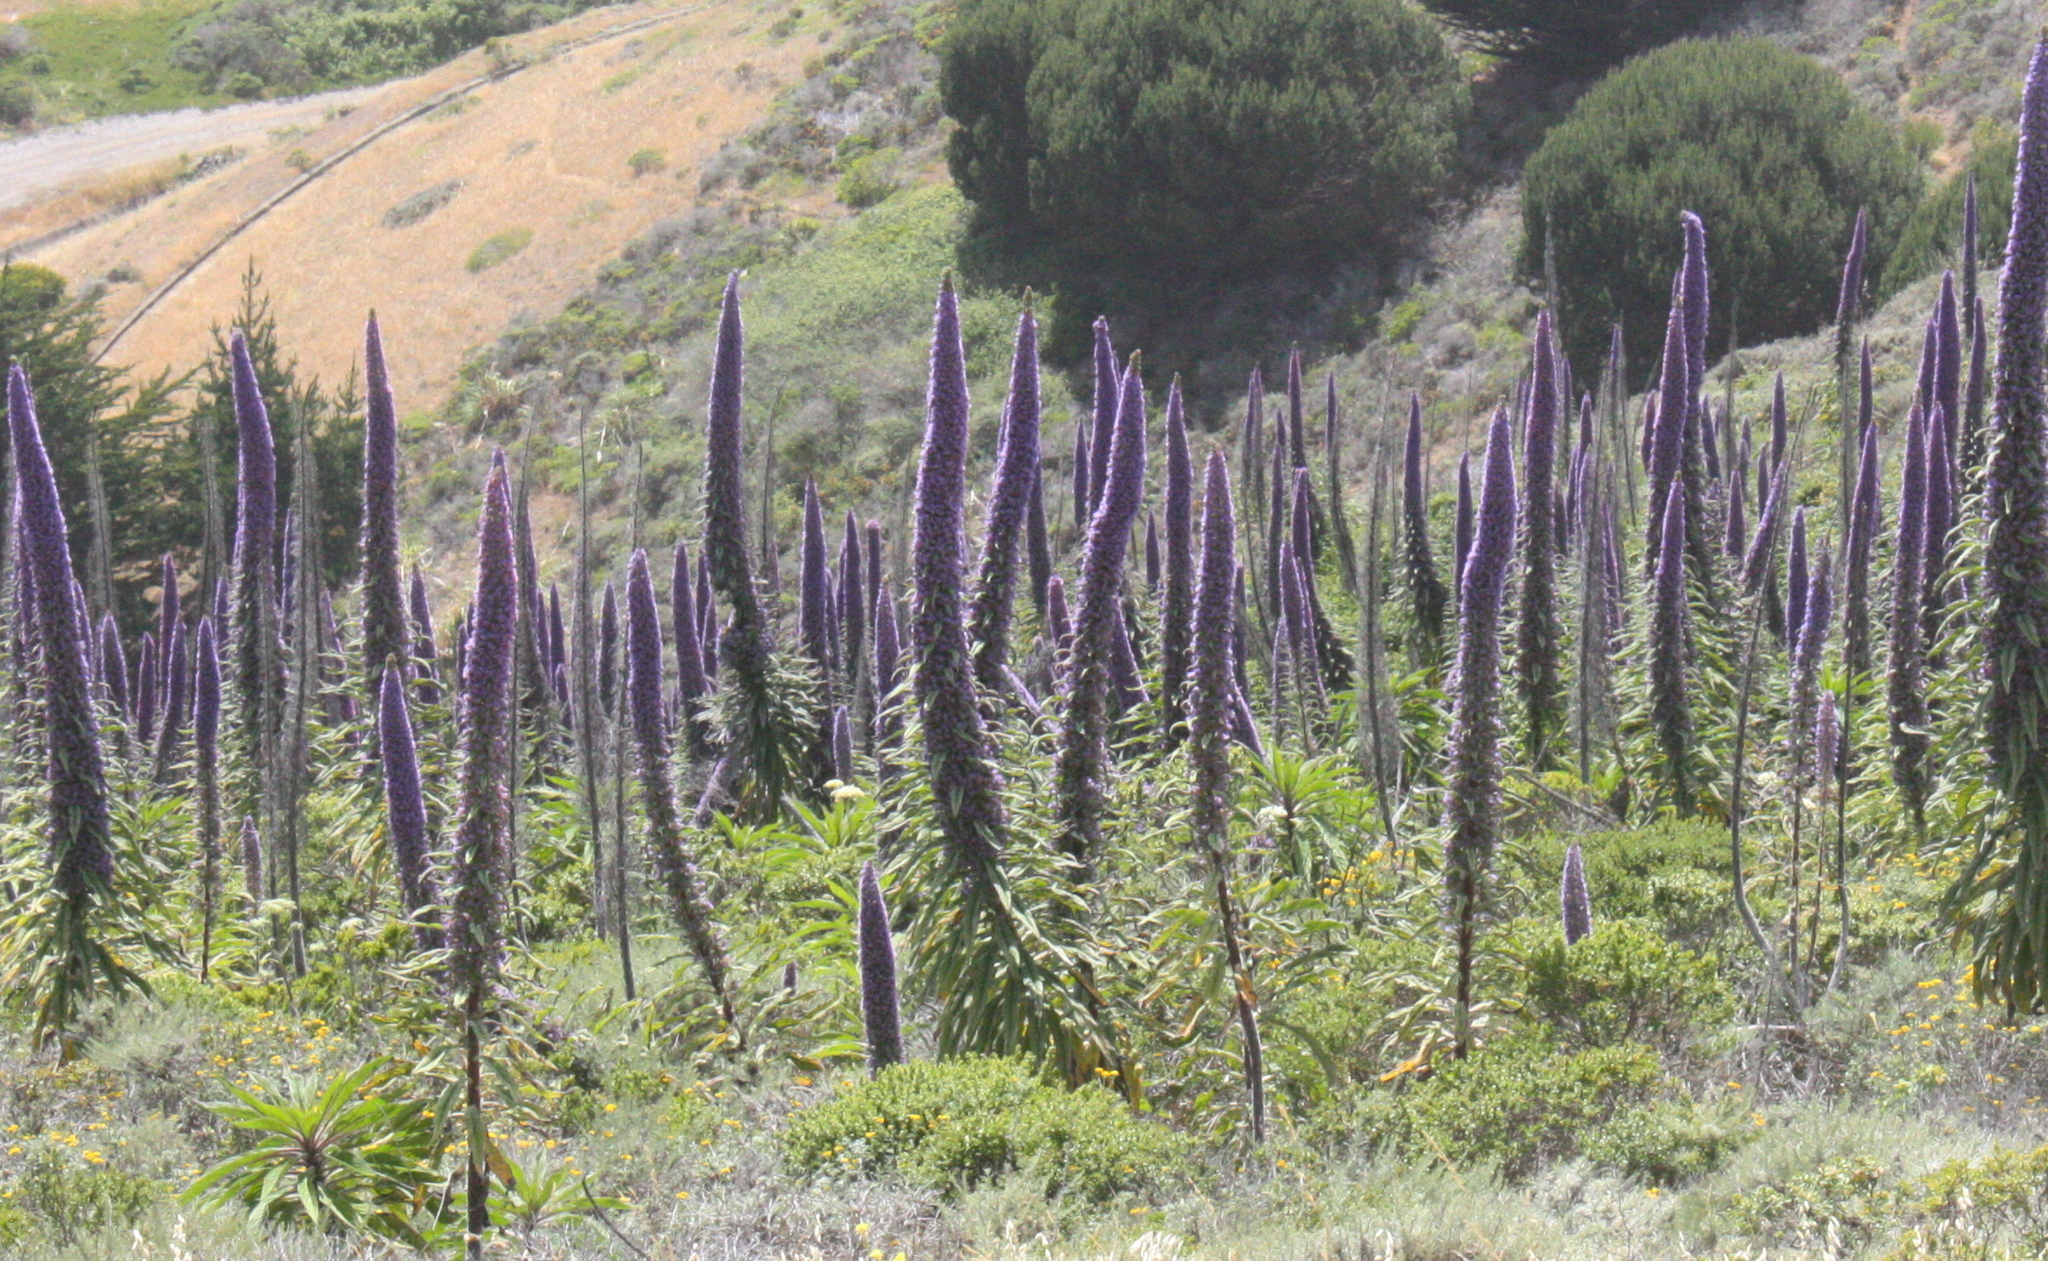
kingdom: Plantae
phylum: Tracheophyta
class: Magnoliopsida
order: Boraginales
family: Boraginaceae
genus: Echium
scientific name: Echium pininana
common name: Giant viper's-bugloss
